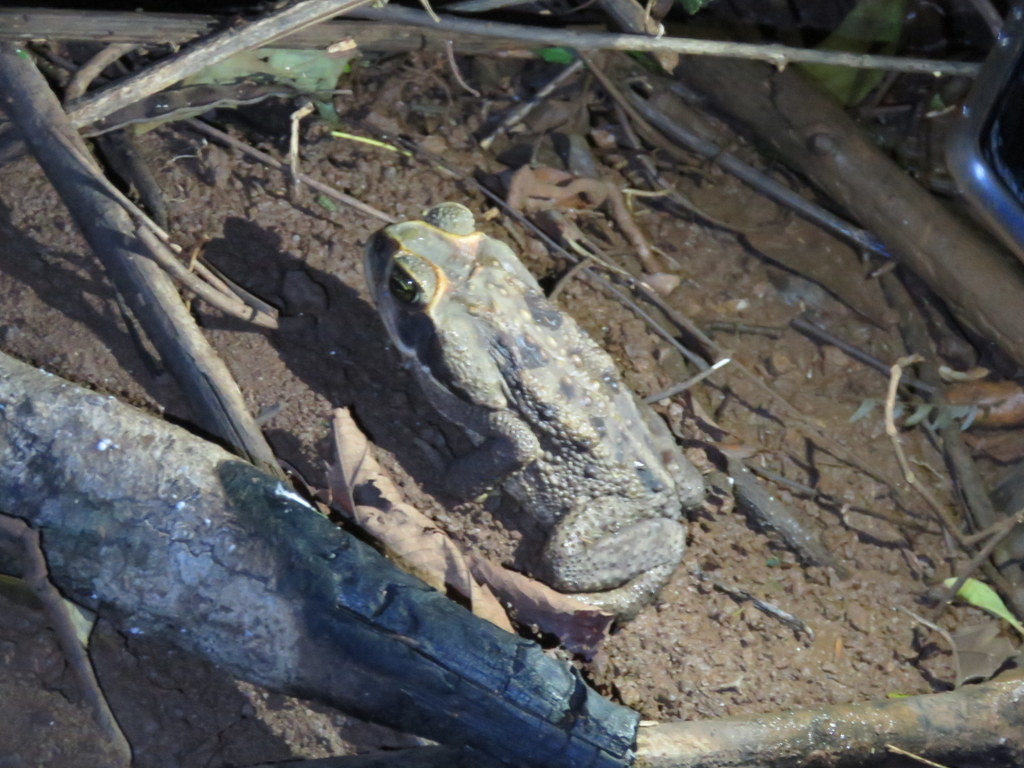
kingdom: Animalia
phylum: Chordata
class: Amphibia
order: Anura
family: Bufonidae
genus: Rhinella
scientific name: Rhinella diptycha
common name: Cope's toad
